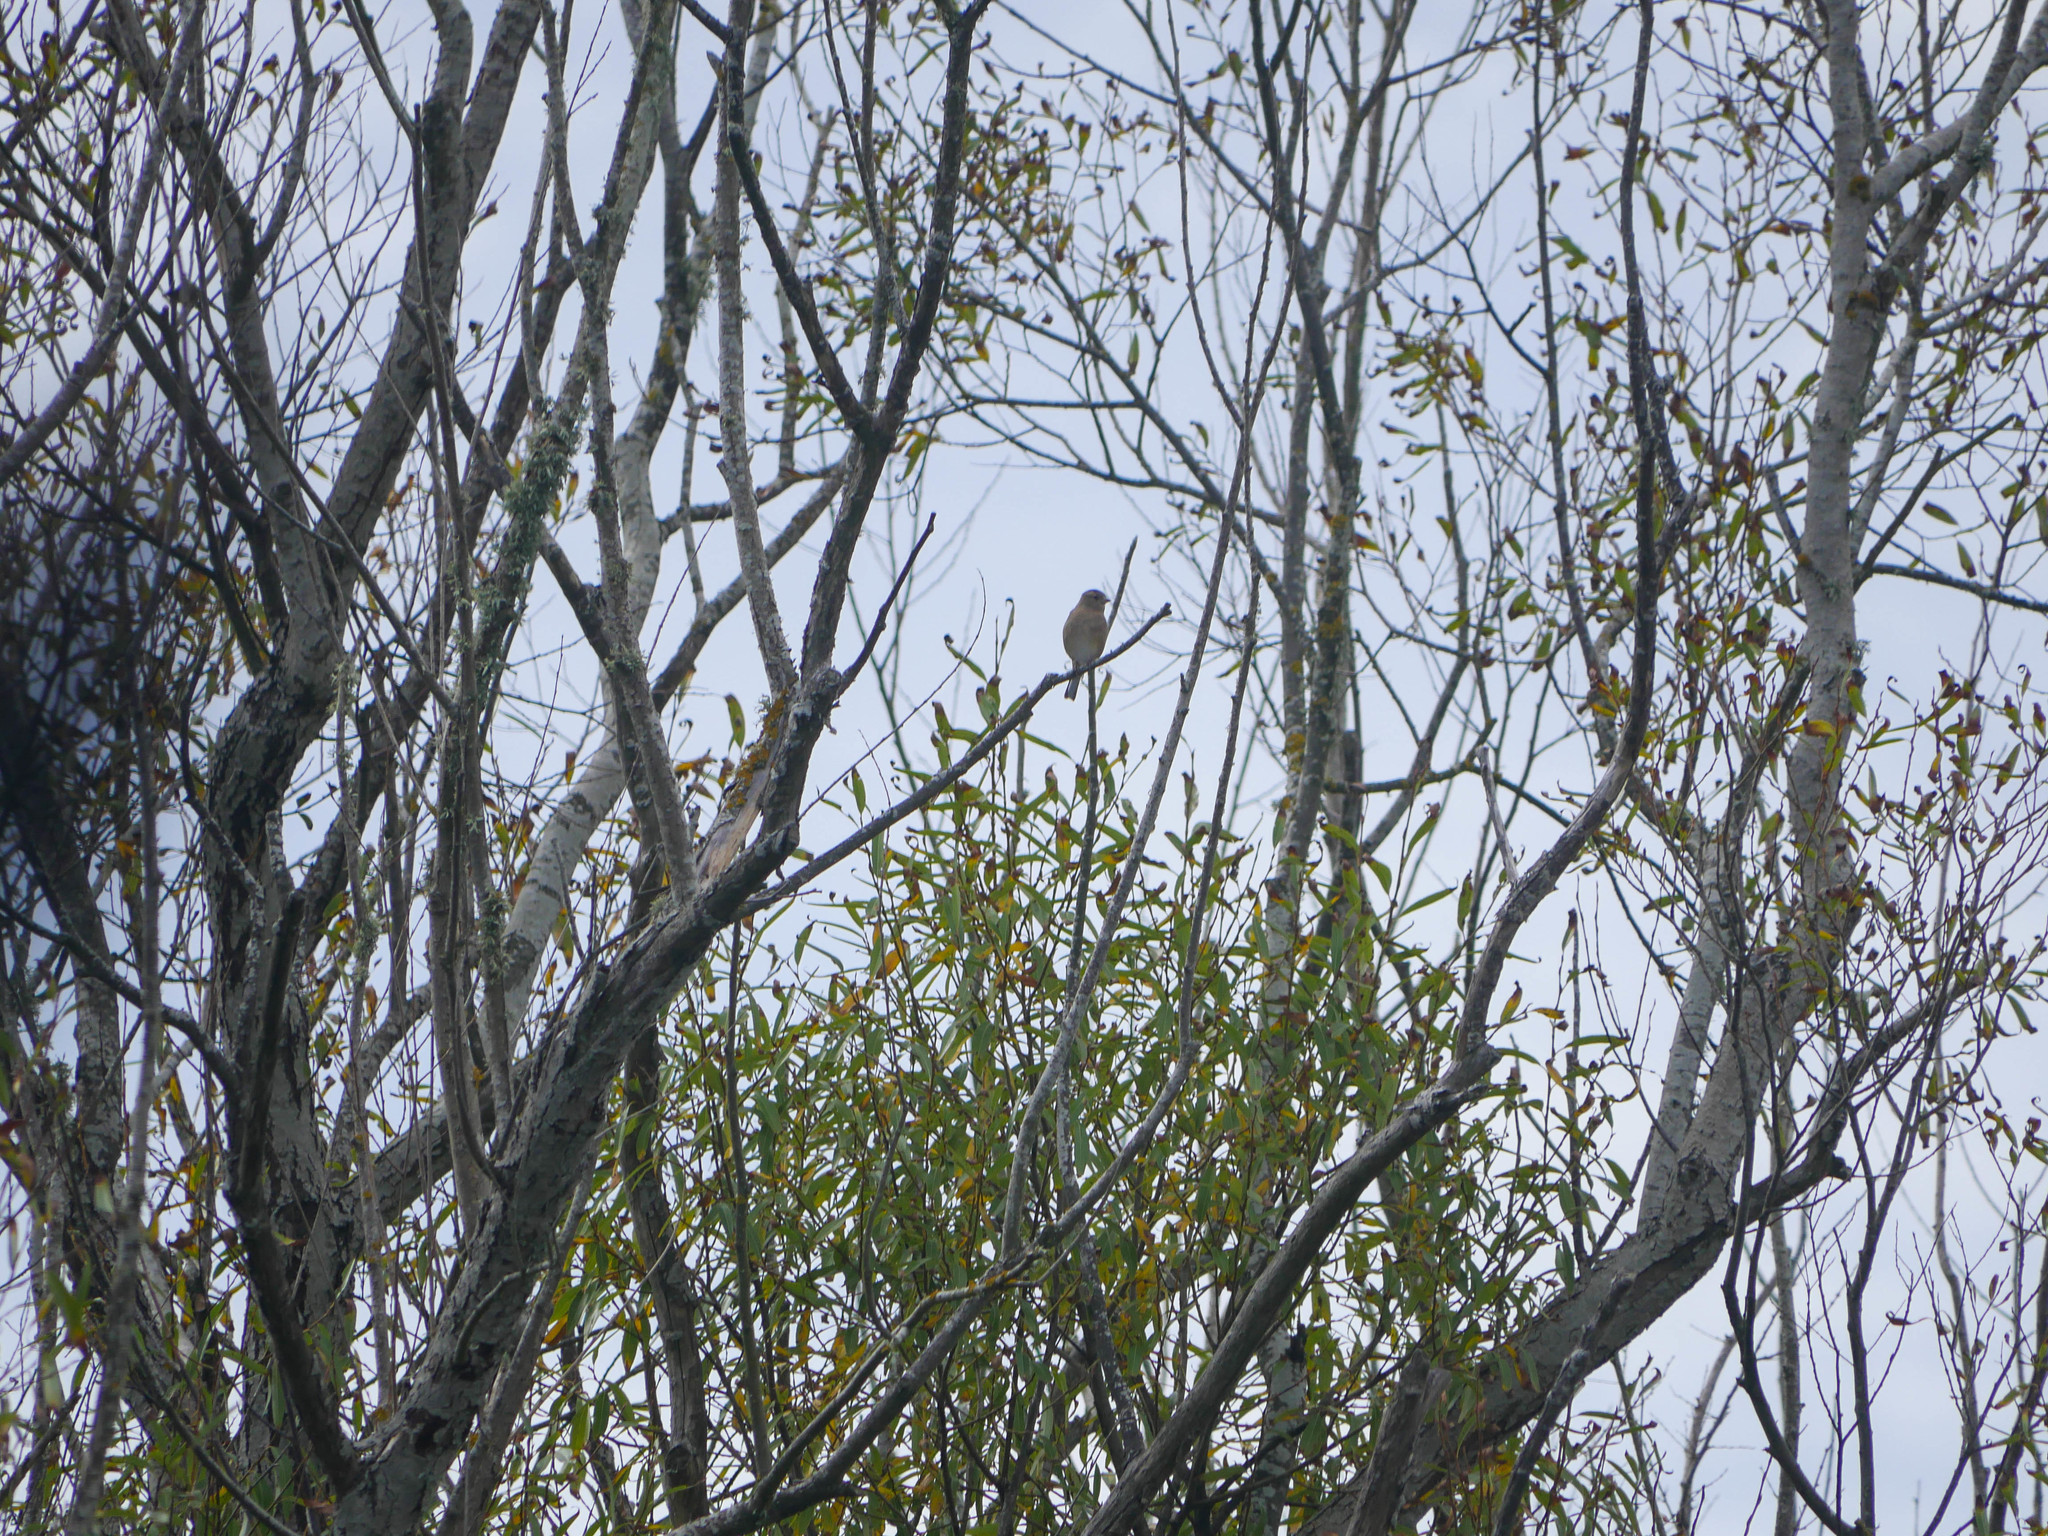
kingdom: Animalia
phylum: Chordata
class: Aves
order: Passeriformes
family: Fringillidae
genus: Fringilla
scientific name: Fringilla coelebs
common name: Common chaffinch
